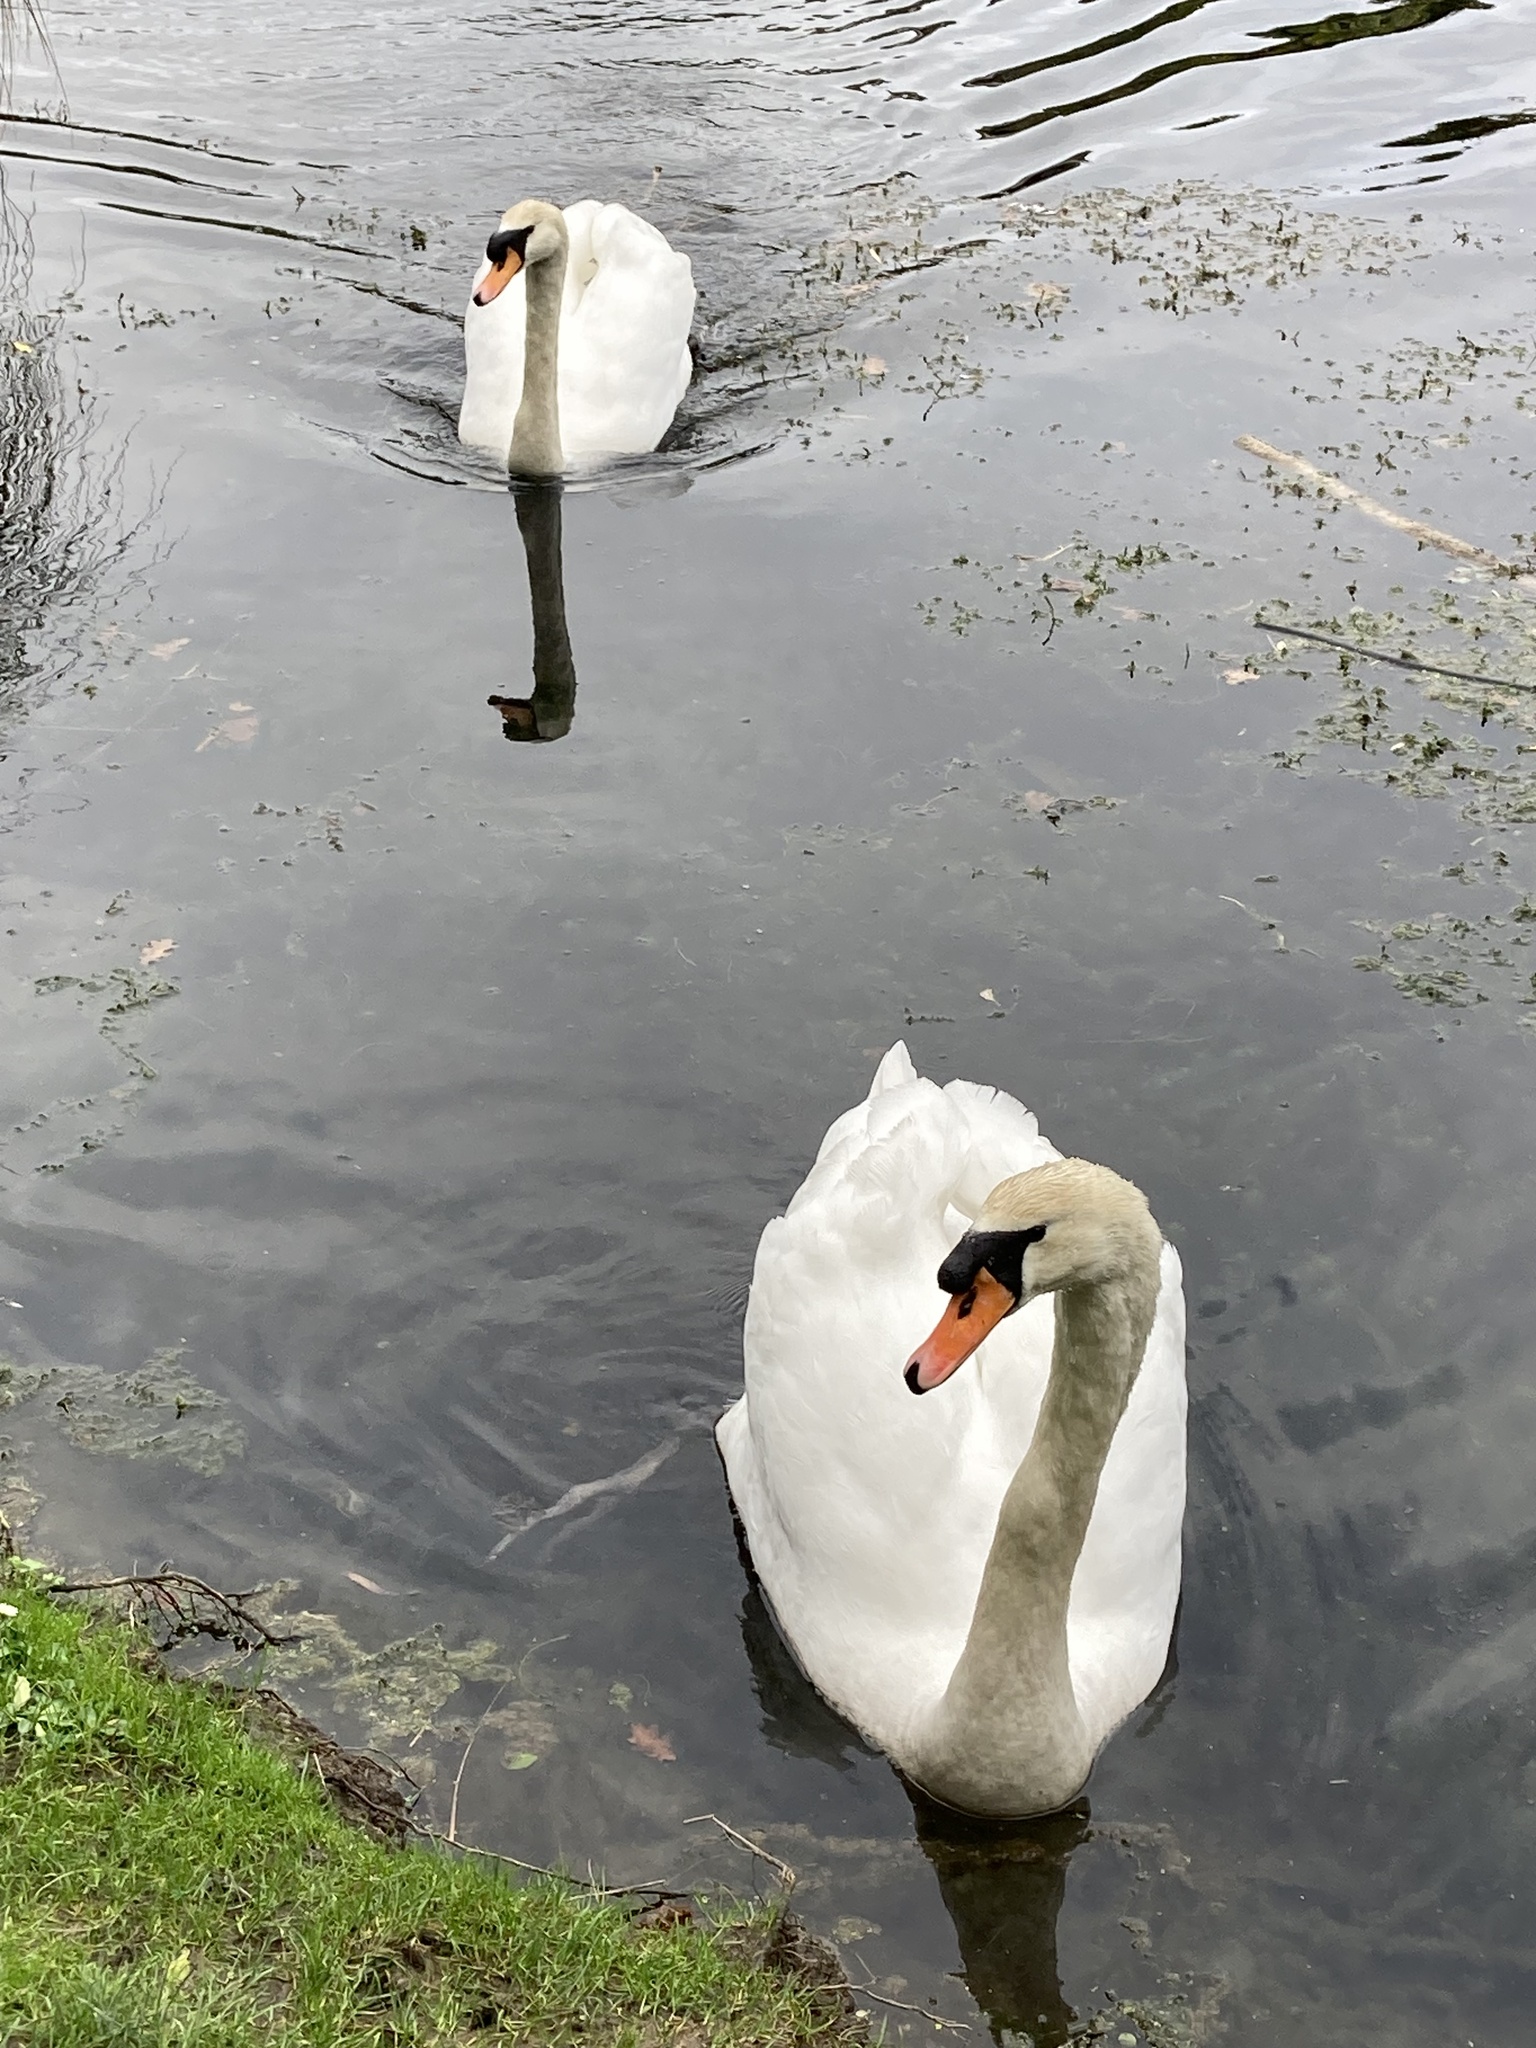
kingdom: Animalia
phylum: Chordata
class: Aves
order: Anseriformes
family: Anatidae
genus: Cygnus
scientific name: Cygnus olor
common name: Mute swan
